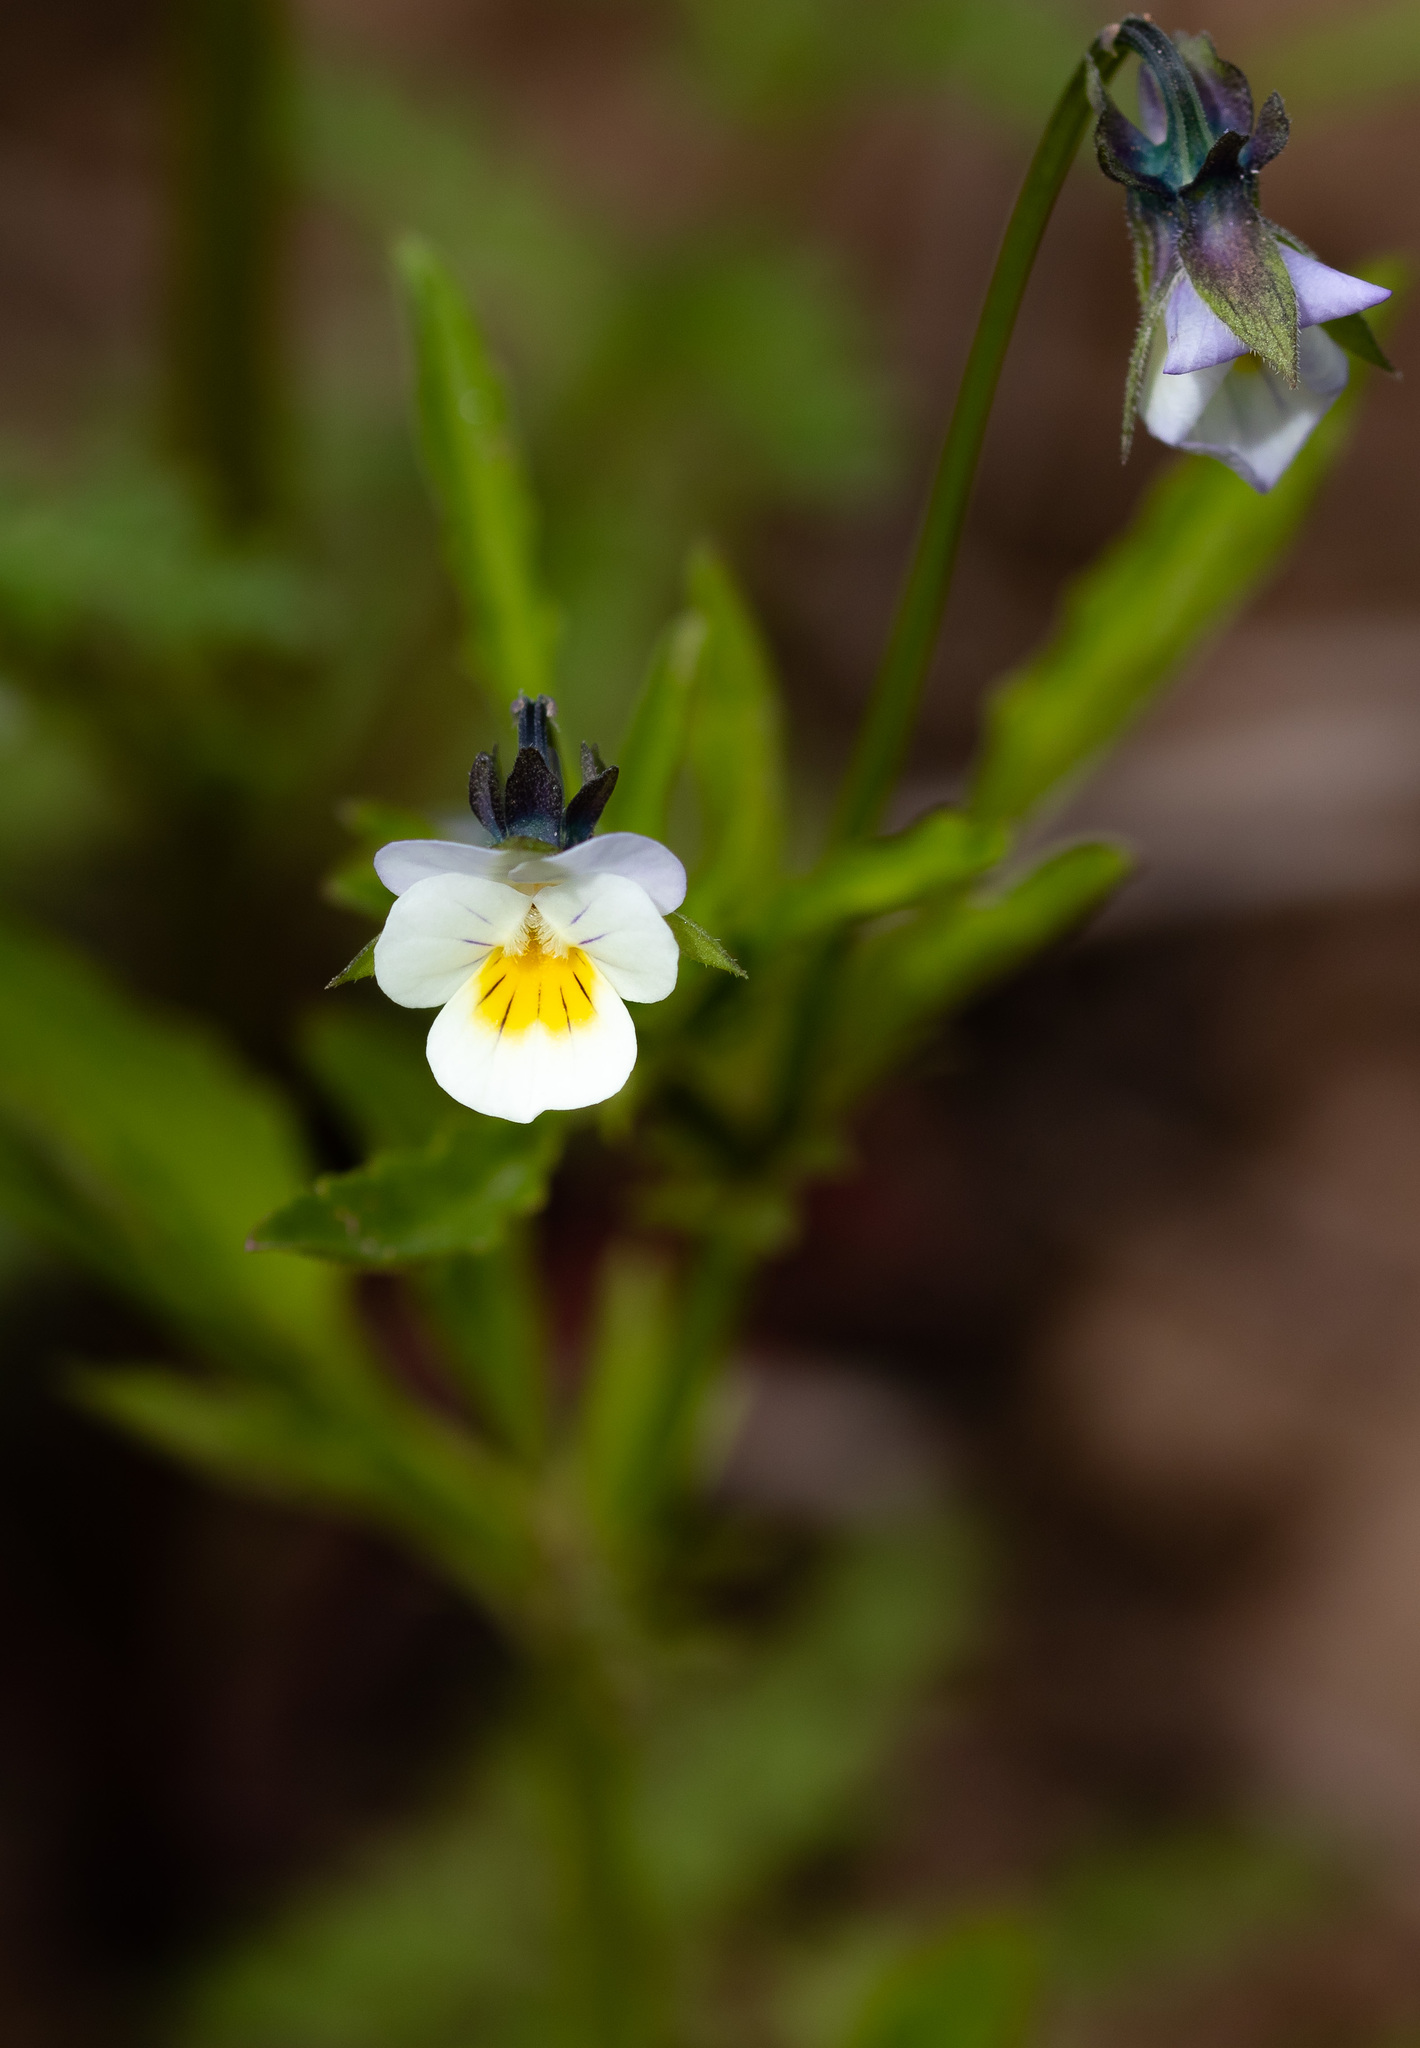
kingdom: Plantae
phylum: Tracheophyta
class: Magnoliopsida
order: Malpighiales
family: Violaceae
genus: Viola
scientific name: Viola arvensis
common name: Field pansy
